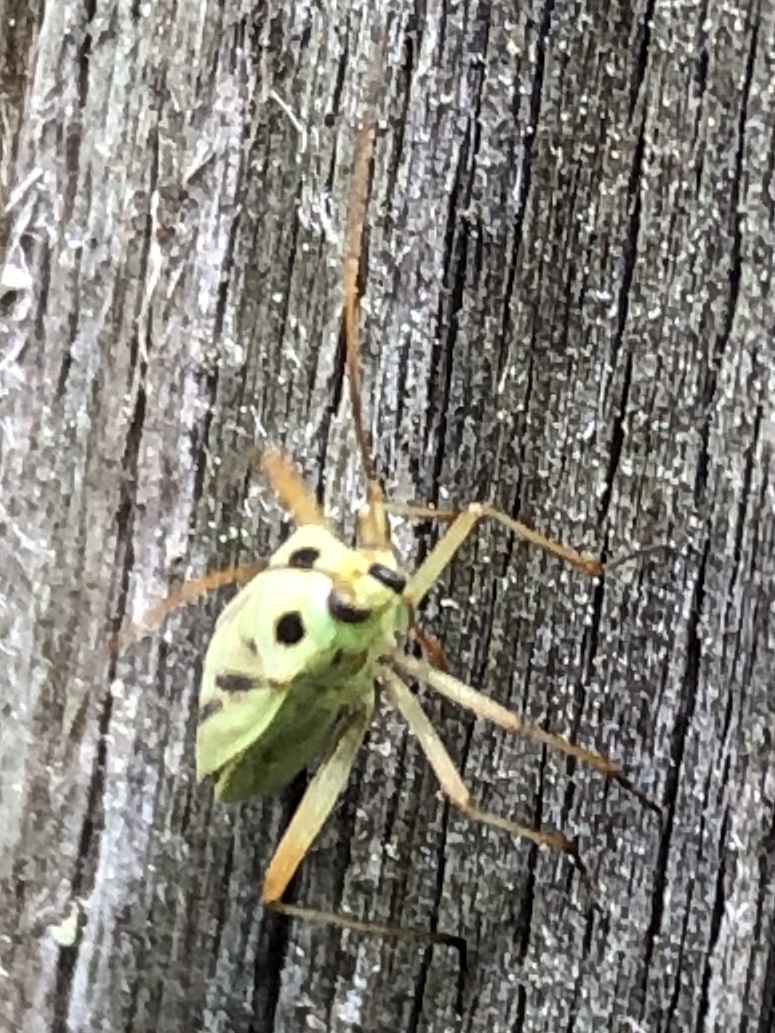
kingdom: Animalia
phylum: Arthropoda
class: Insecta
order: Hemiptera
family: Miridae
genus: Stenotus
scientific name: Stenotus binotatus
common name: Plant bug
